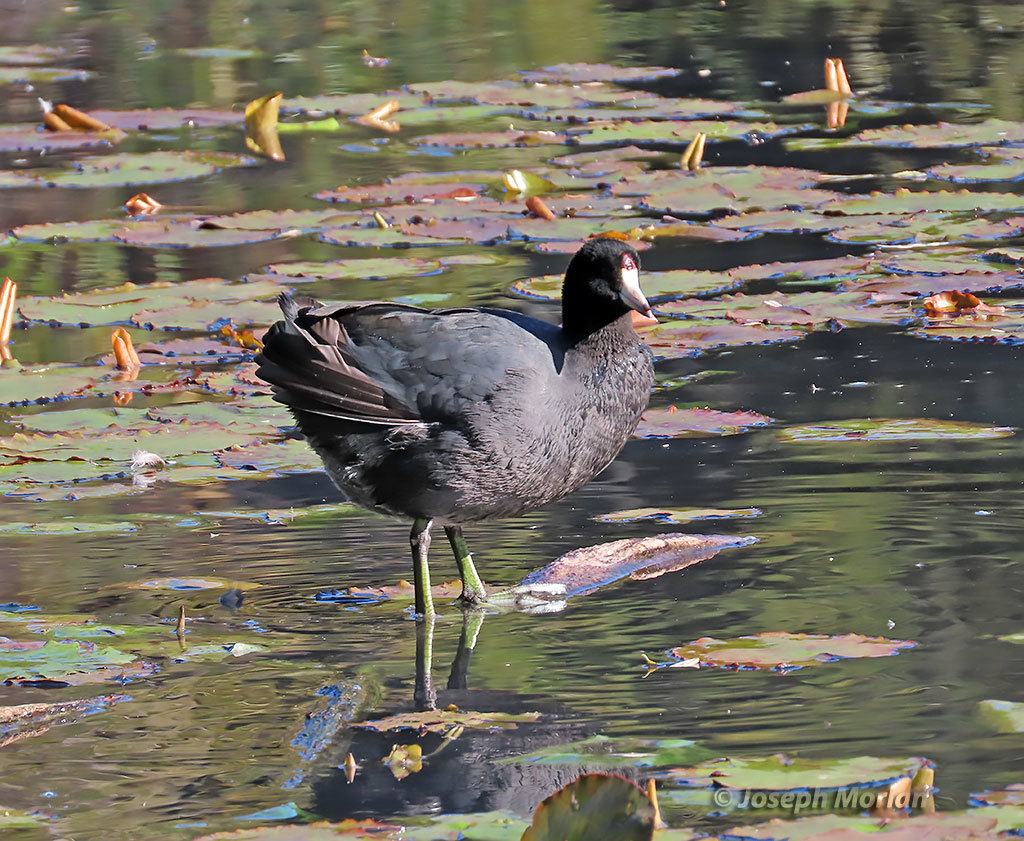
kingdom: Animalia
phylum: Chordata
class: Aves
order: Gruiformes
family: Rallidae
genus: Fulica
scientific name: Fulica americana
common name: American coot
